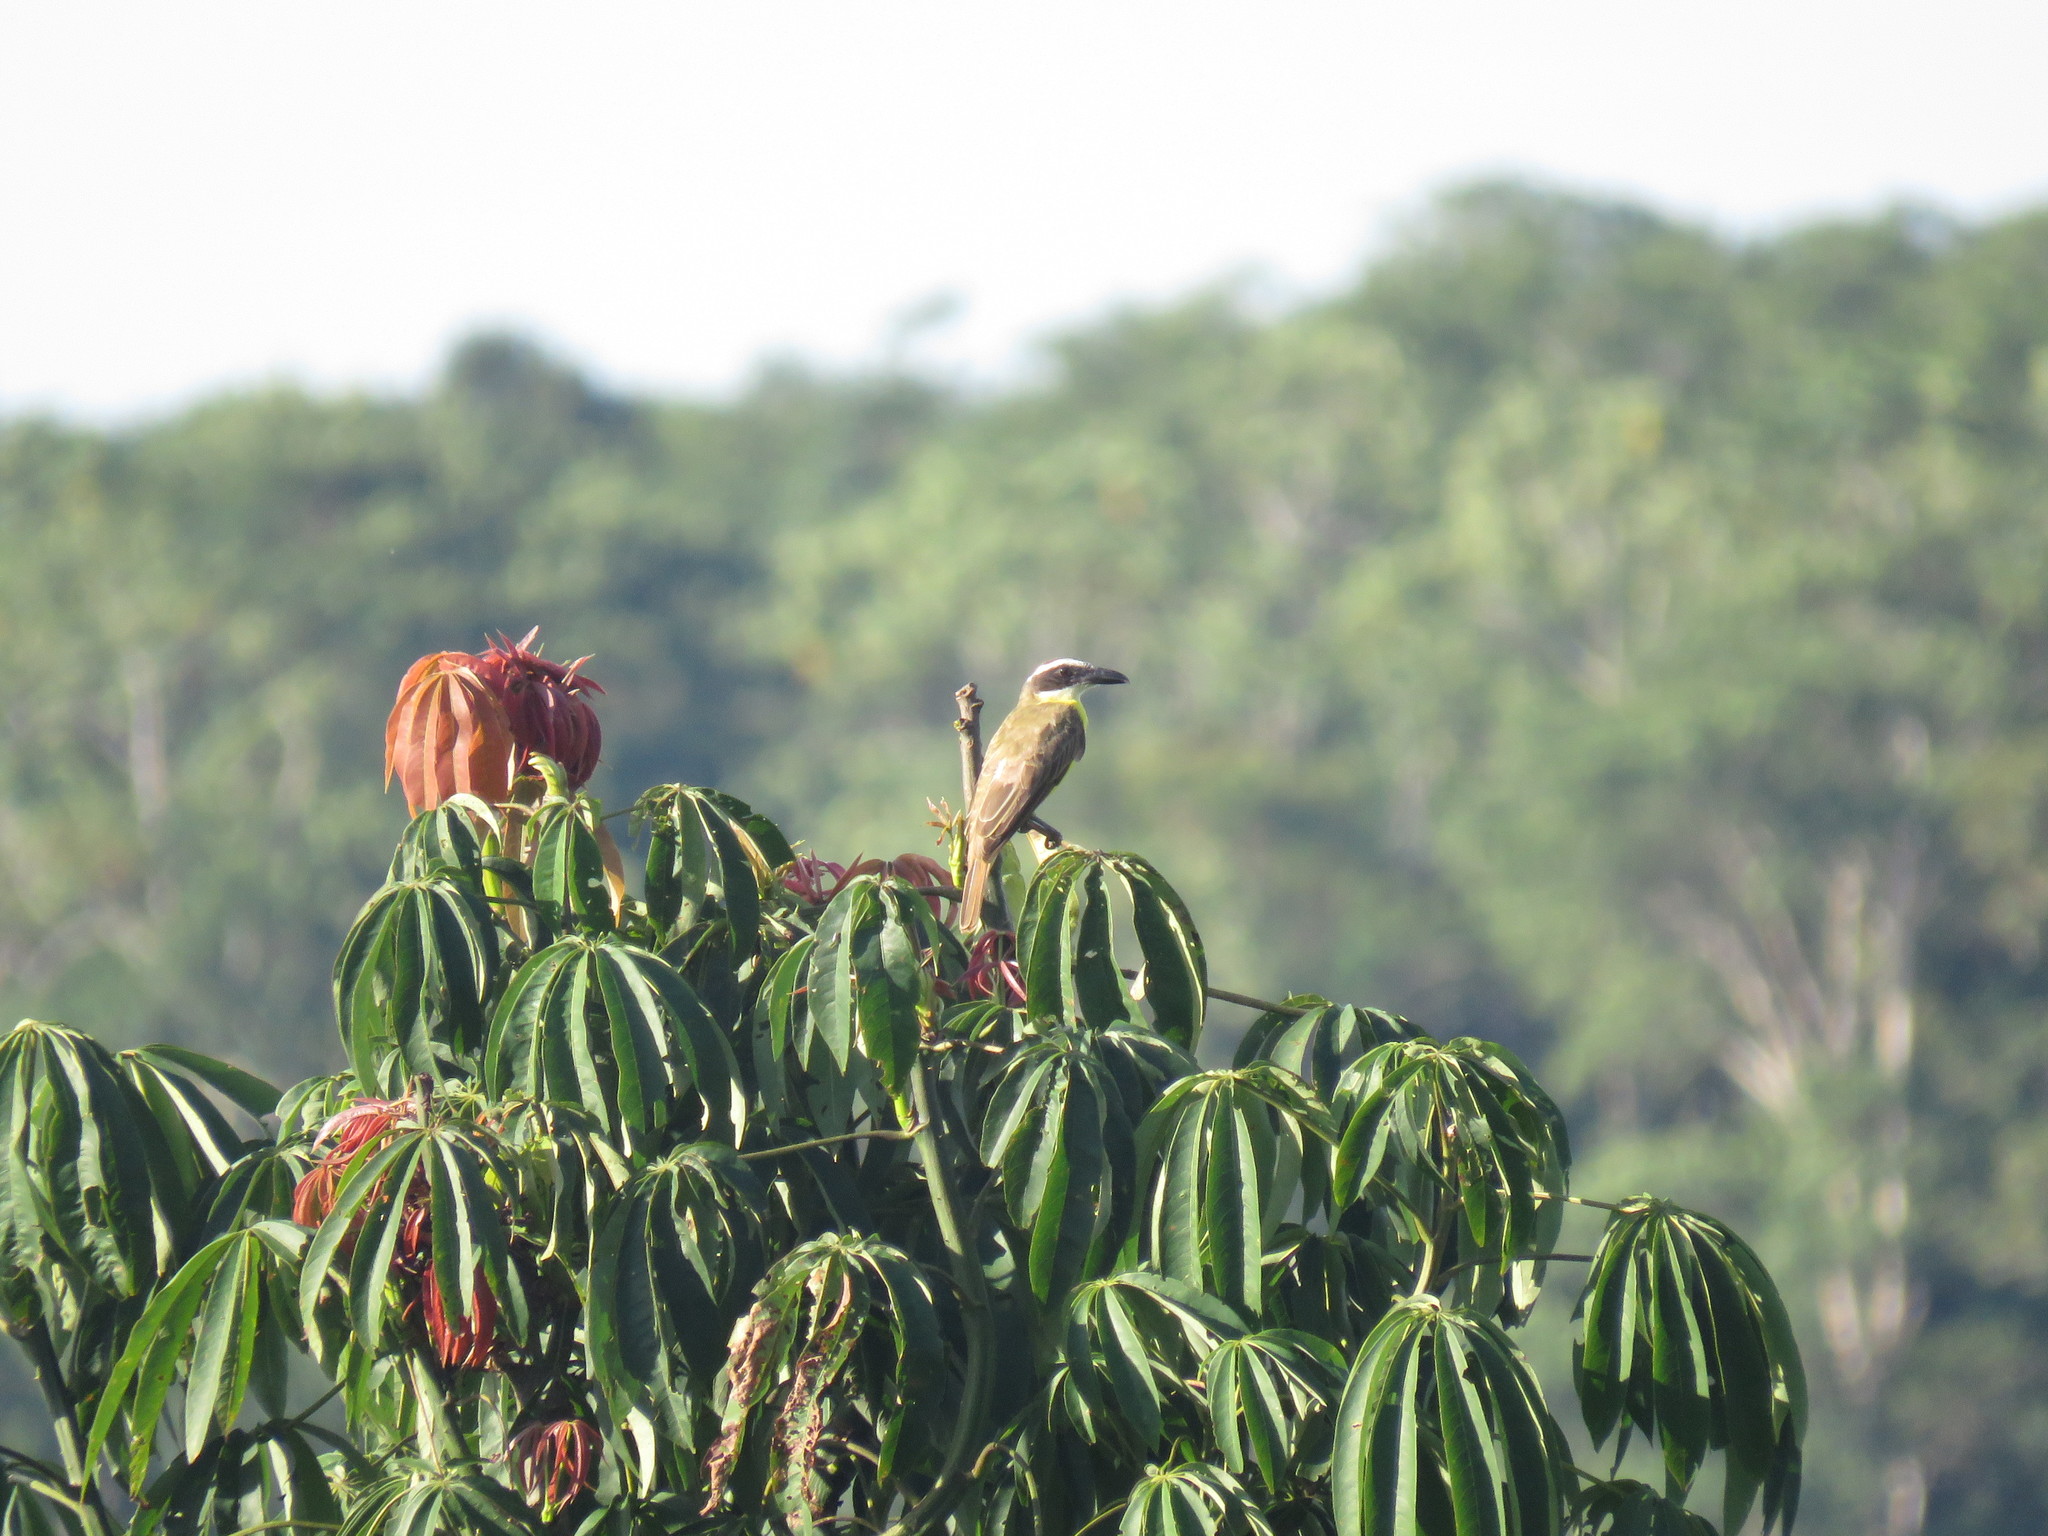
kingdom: Animalia
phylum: Chordata
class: Aves
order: Passeriformes
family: Tyrannidae
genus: Megarynchus
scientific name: Megarynchus pitangua
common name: Boat-billed flycatcher
